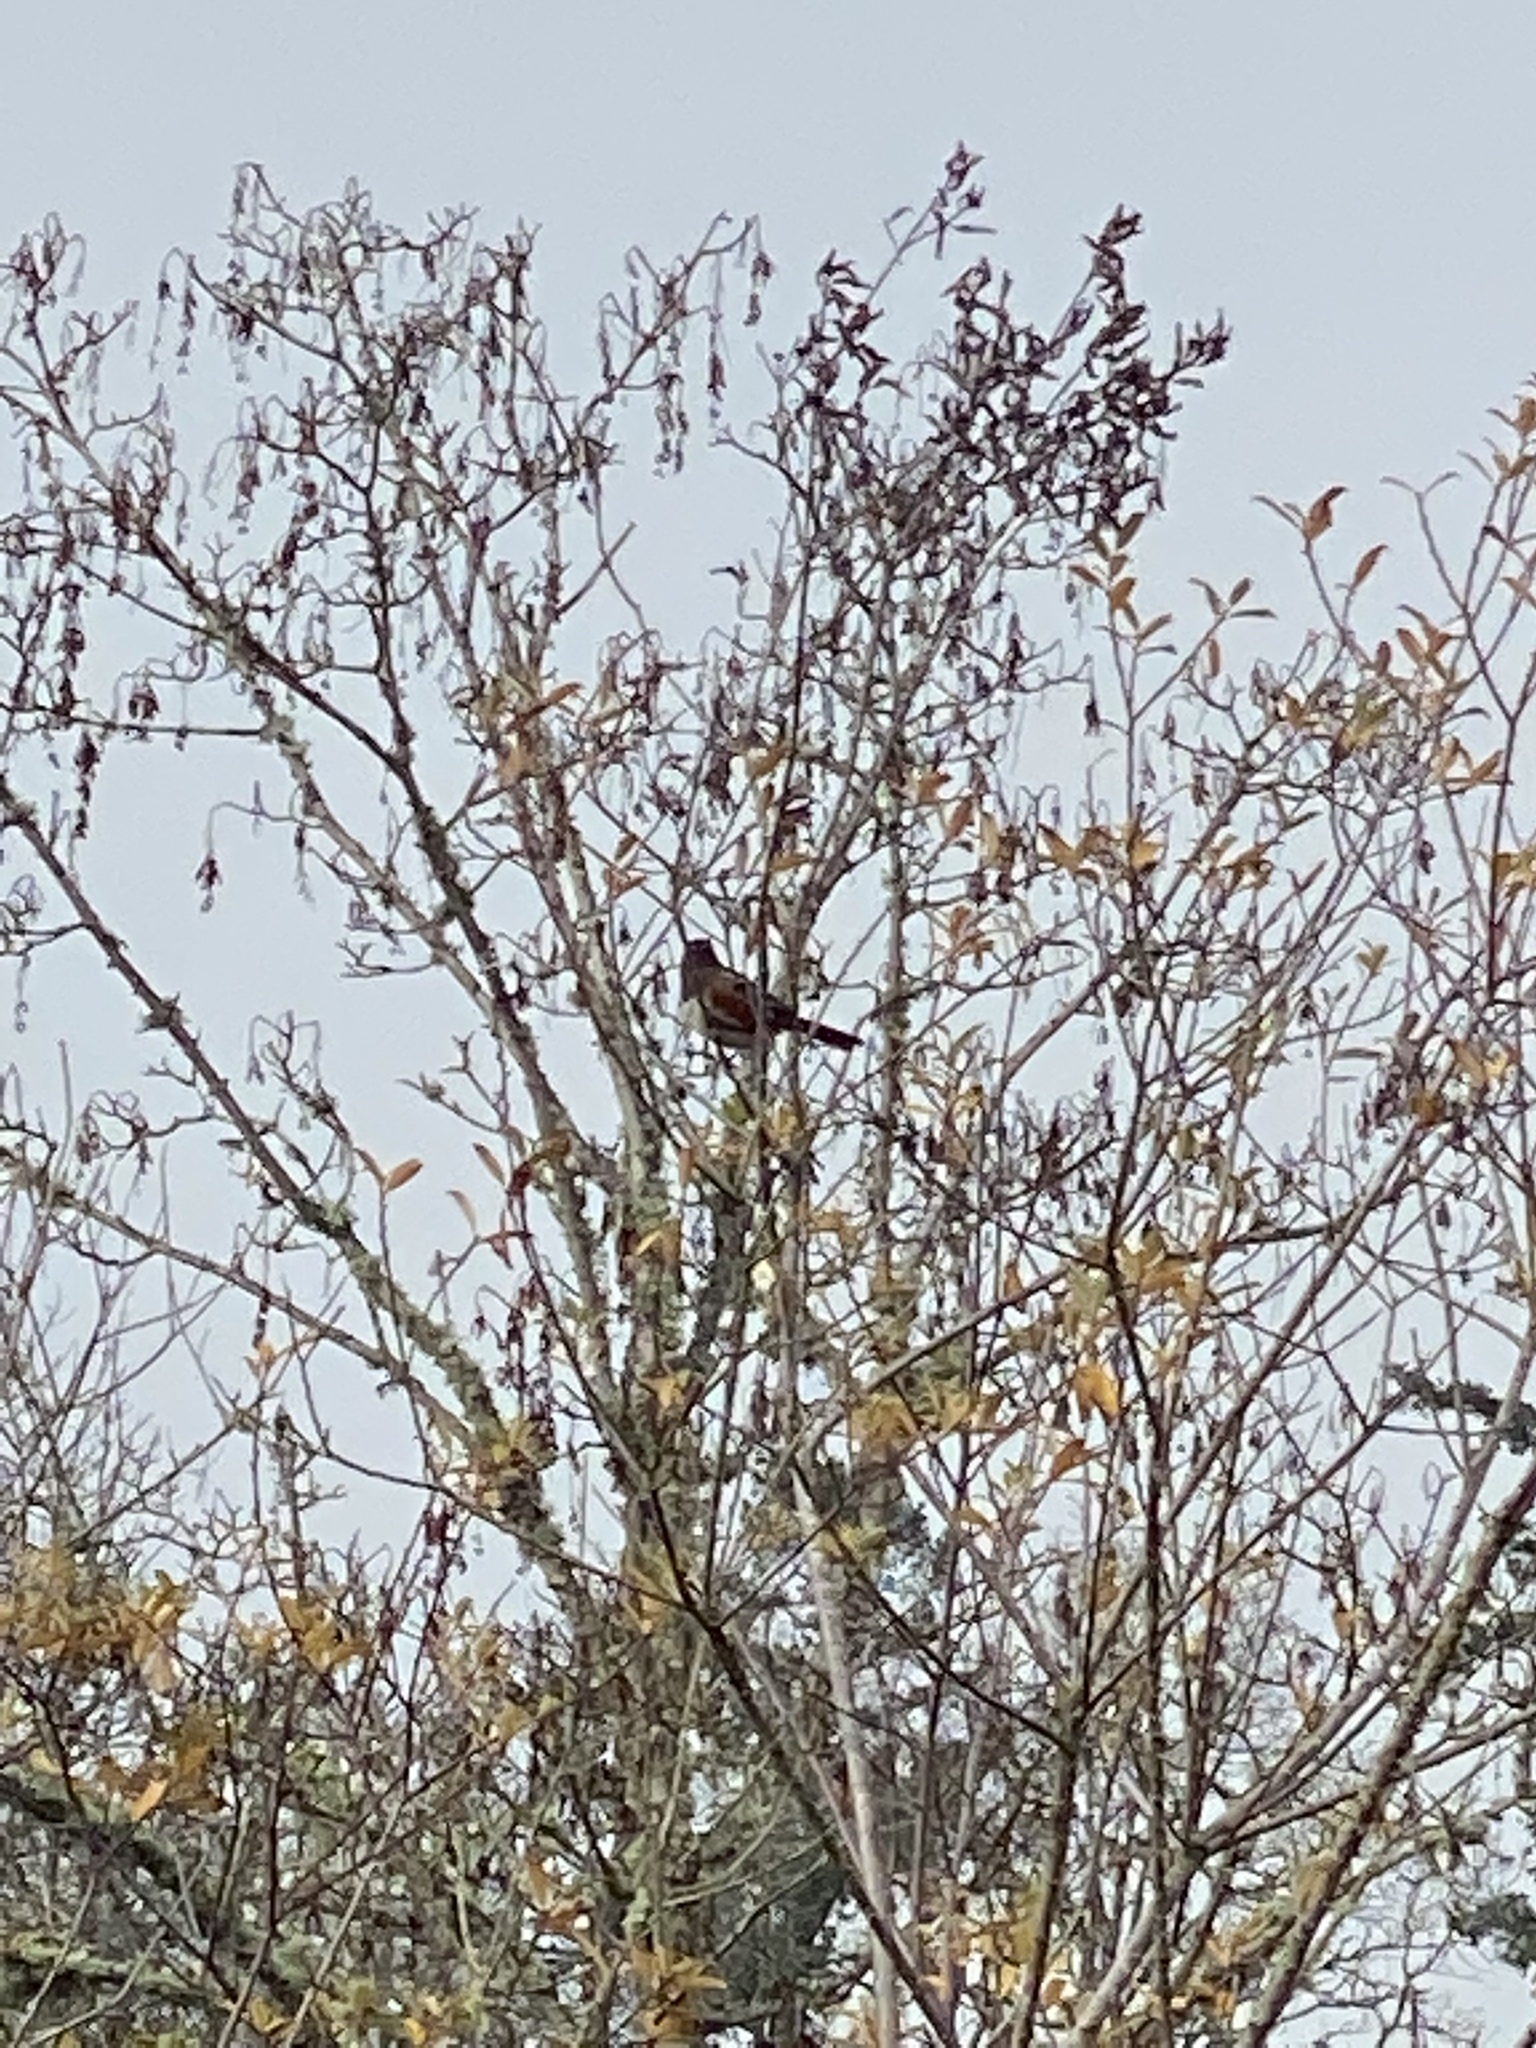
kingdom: Animalia
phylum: Chordata
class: Aves
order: Passeriformes
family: Passerellidae
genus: Pipilo
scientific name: Pipilo maculatus
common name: Spotted towhee
